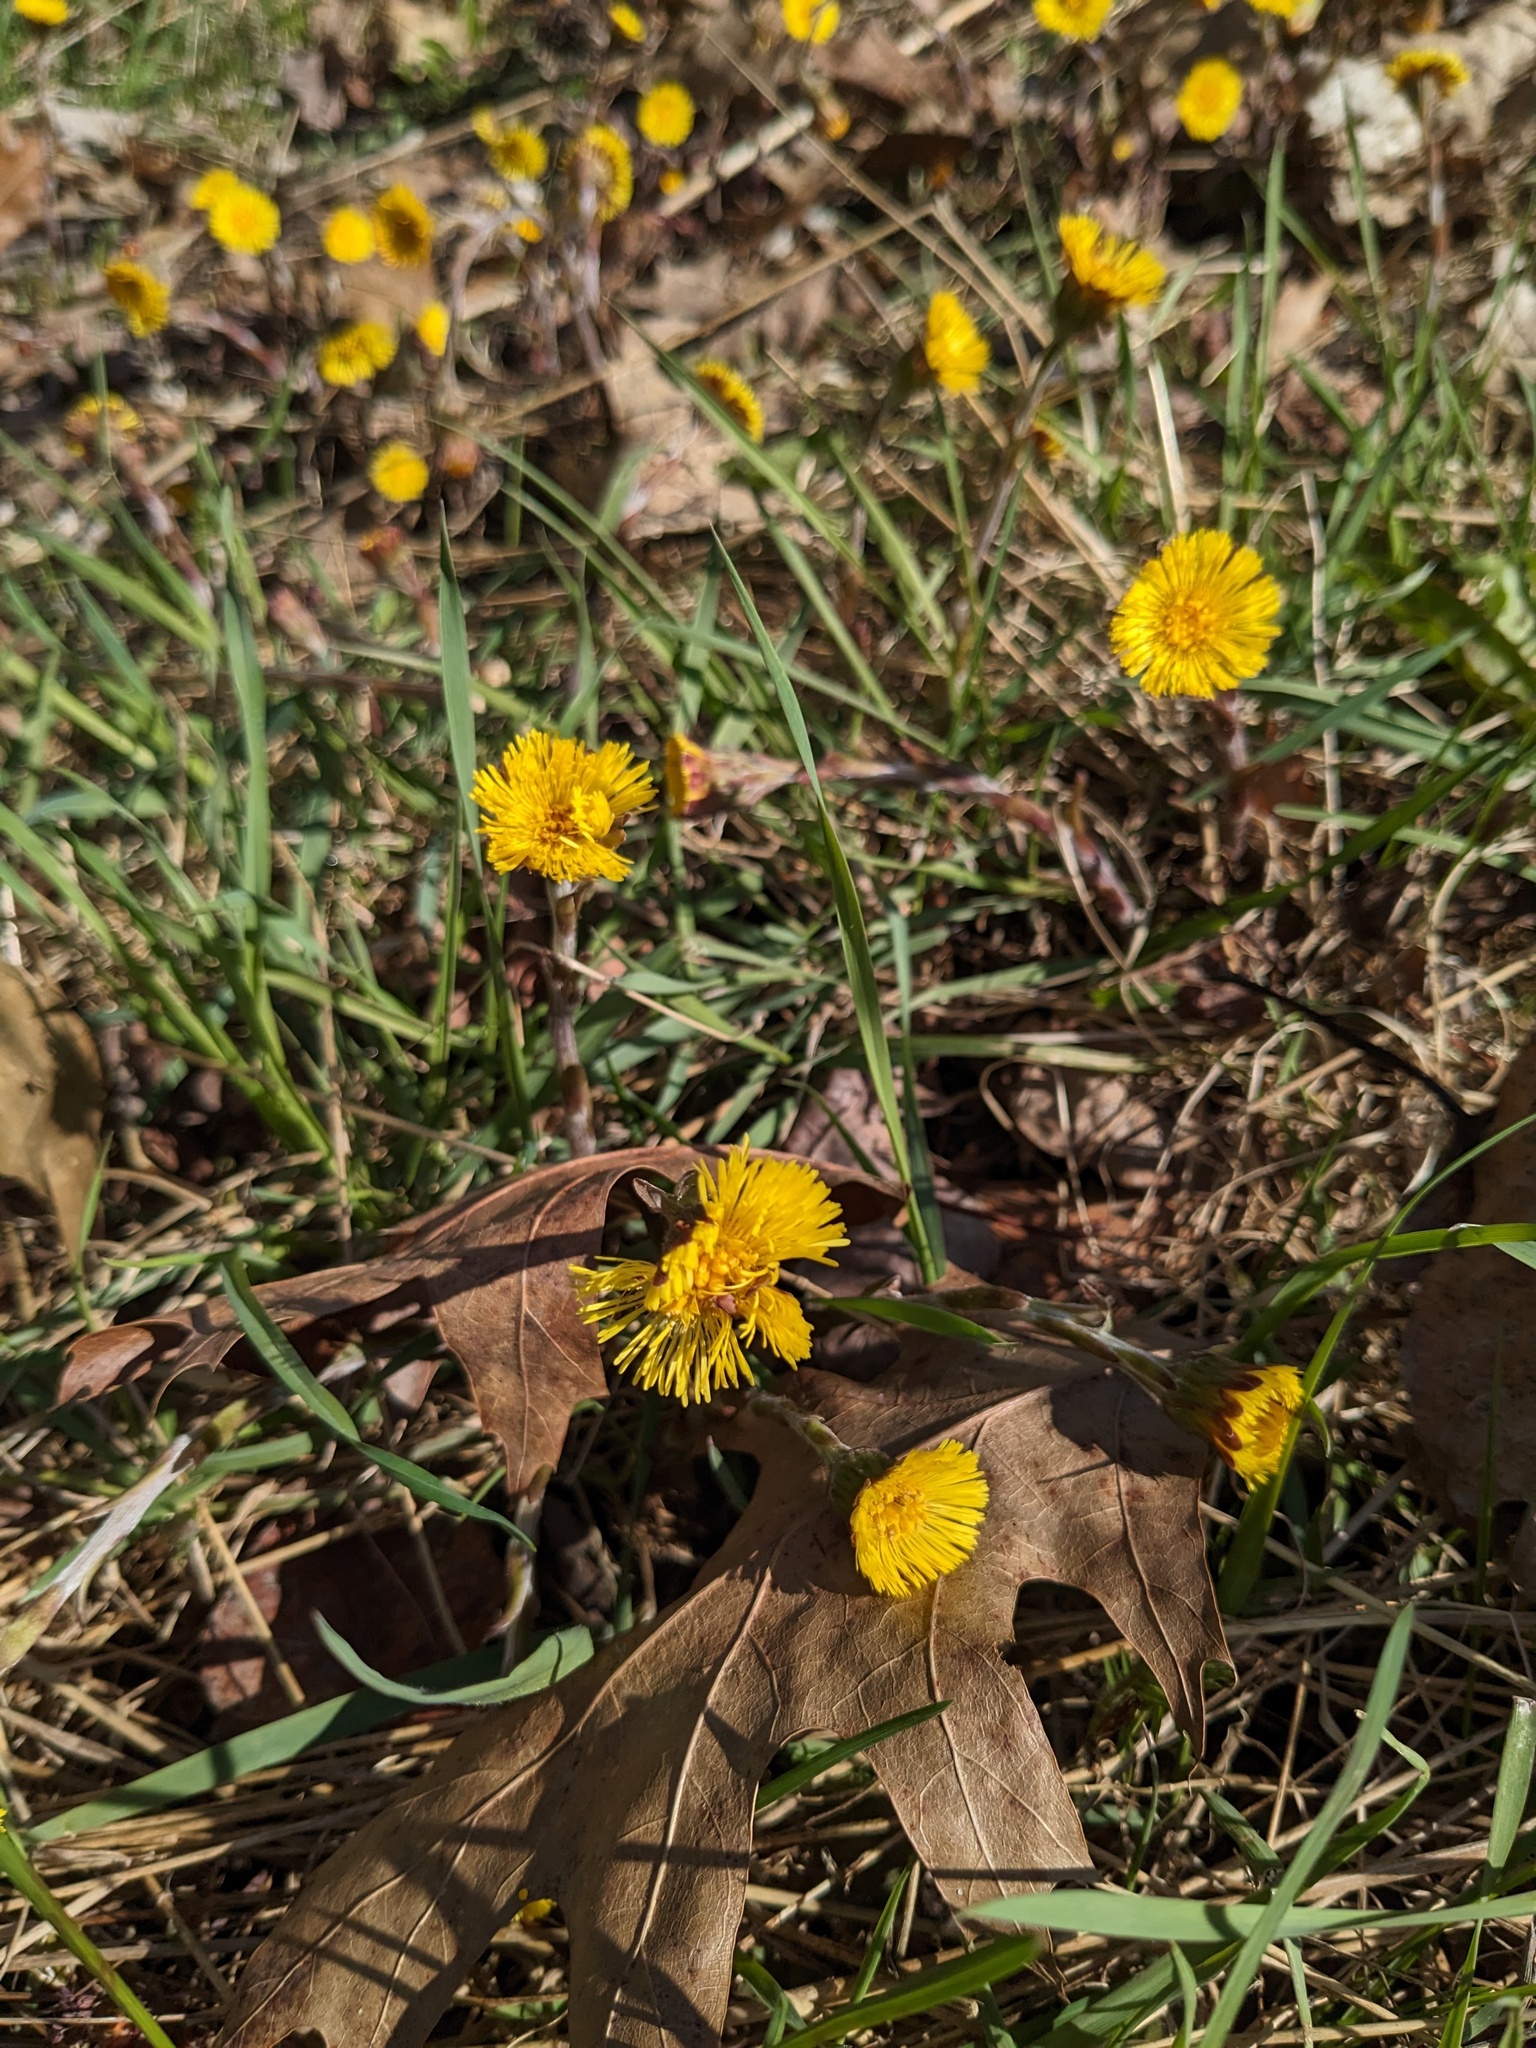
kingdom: Plantae
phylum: Tracheophyta
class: Magnoliopsida
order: Asterales
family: Asteraceae
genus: Tussilago
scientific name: Tussilago farfara
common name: Coltsfoot
